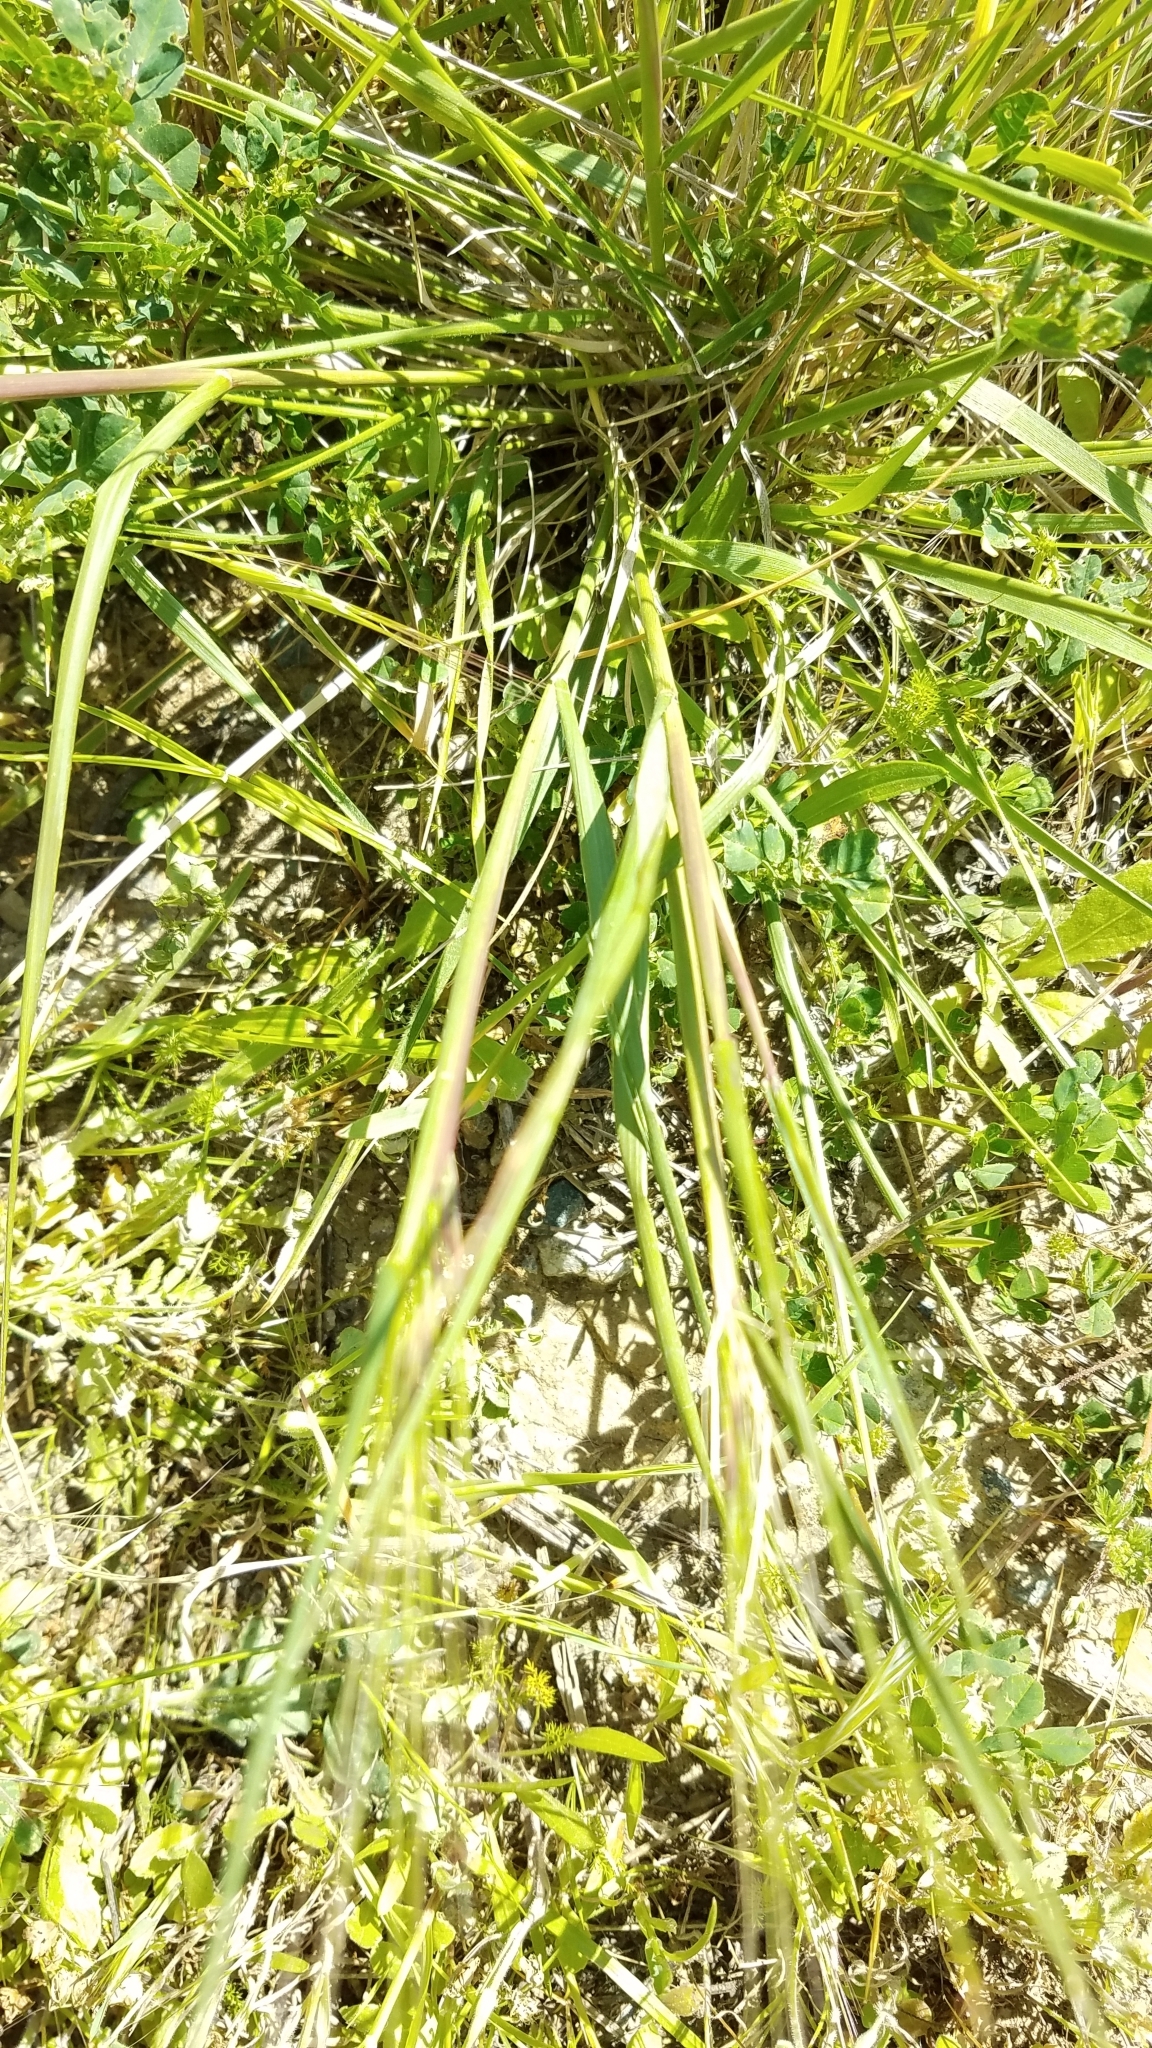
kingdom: Plantae
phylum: Tracheophyta
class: Liliopsida
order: Poales
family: Poaceae
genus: Nassella
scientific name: Nassella pulchra
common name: Purple needlegrass
